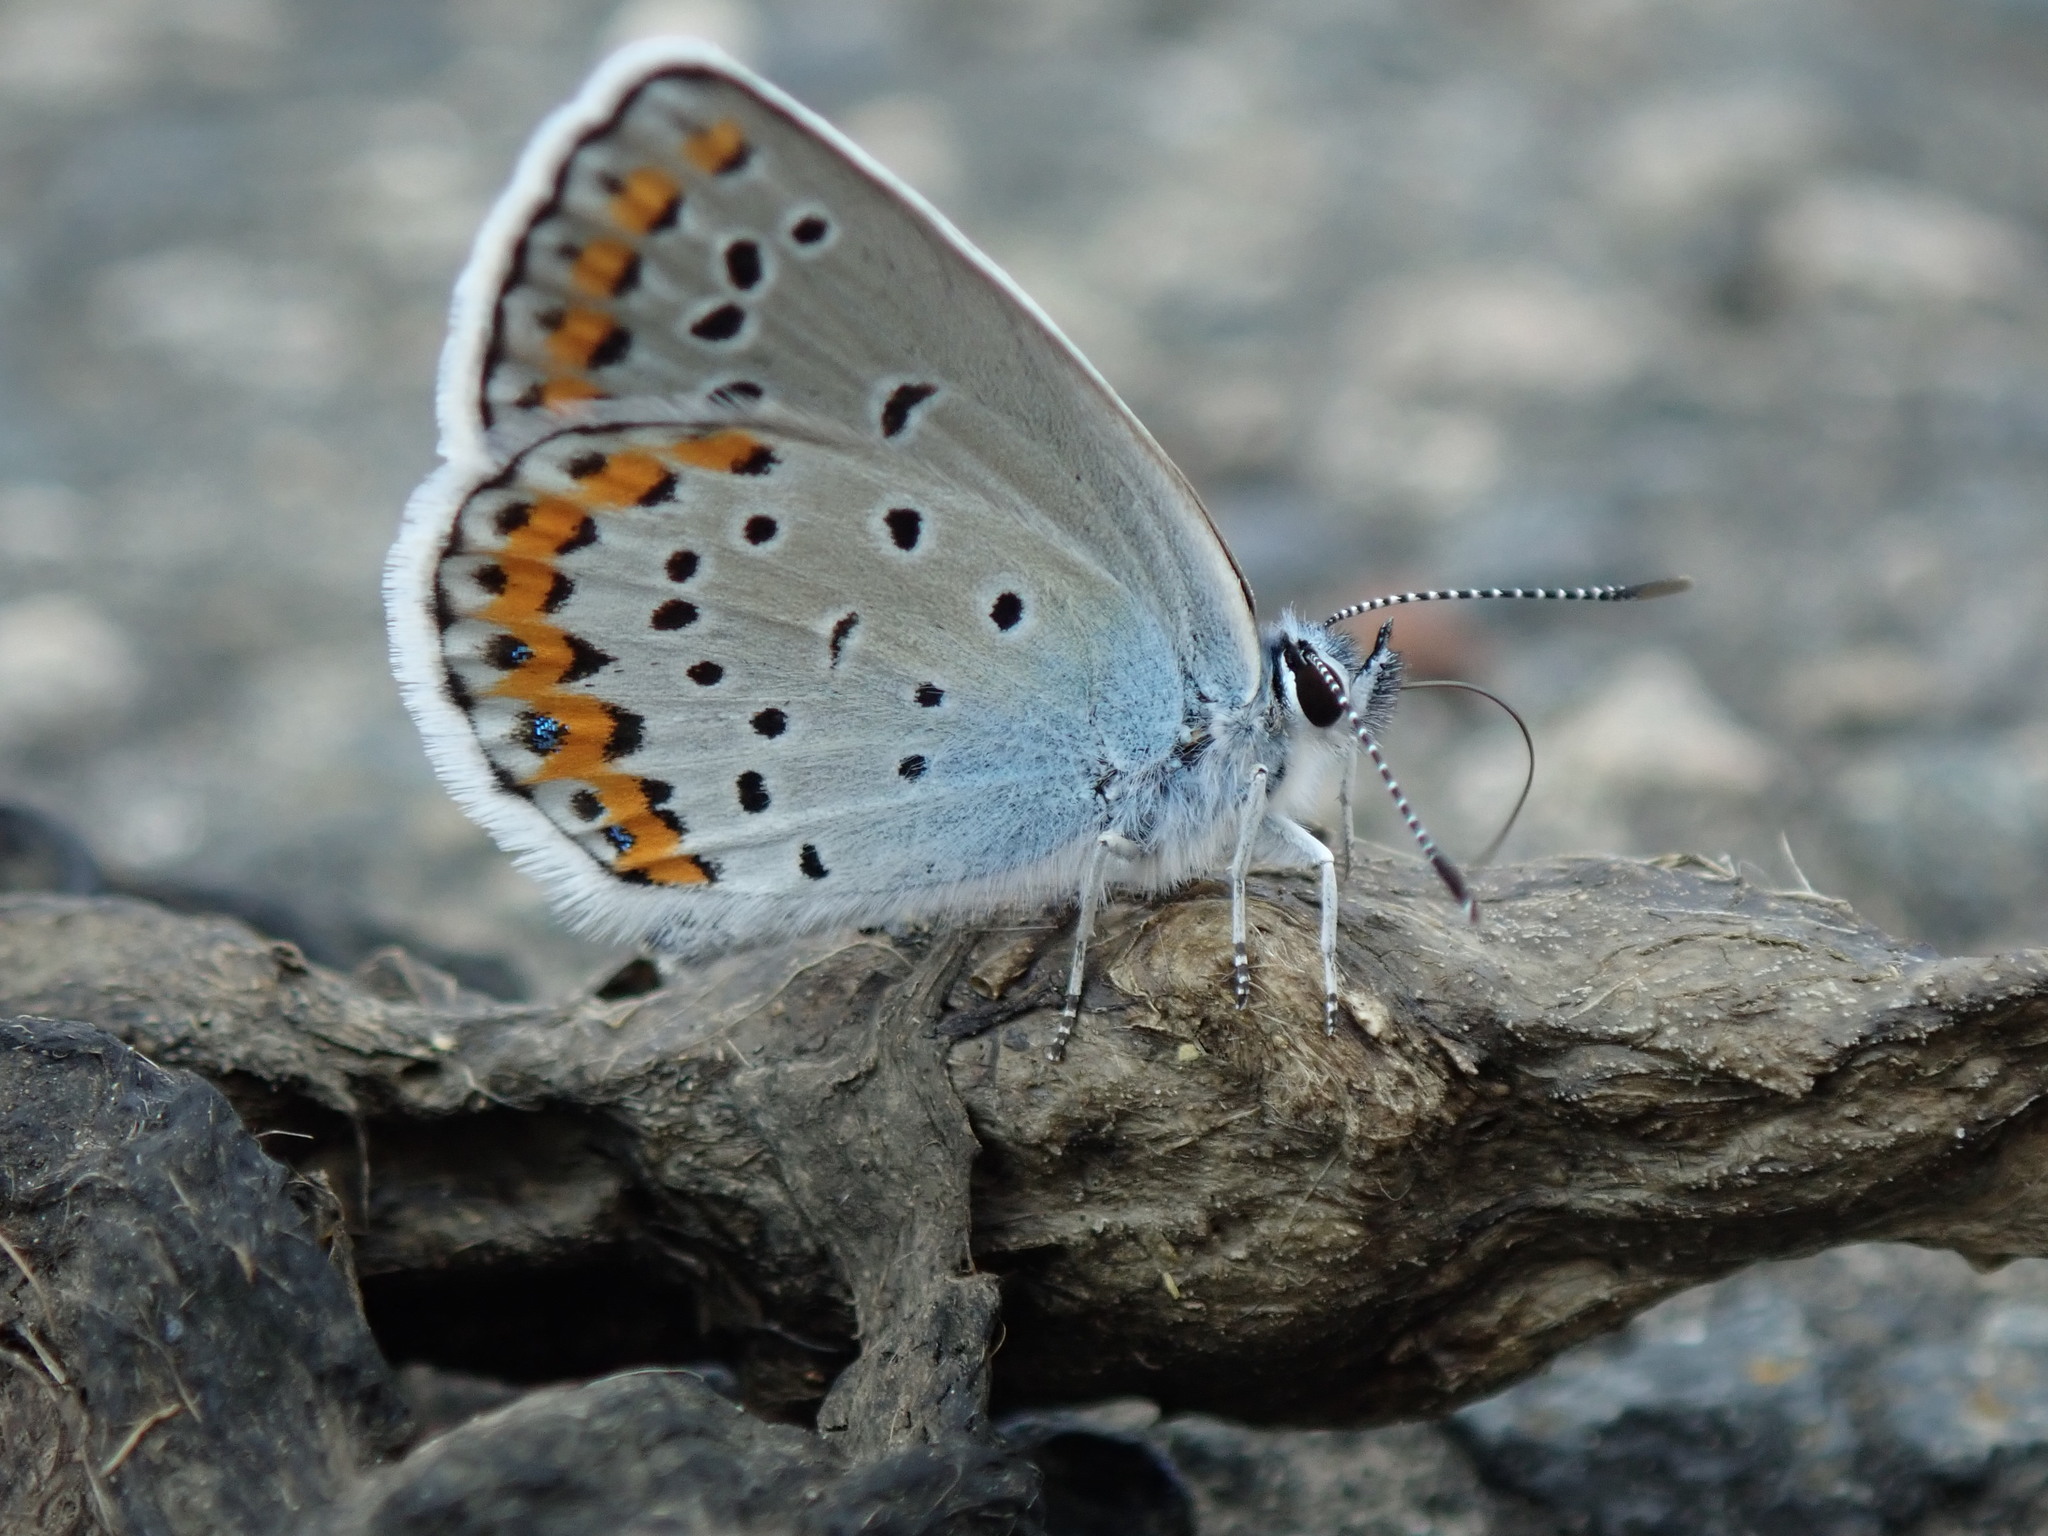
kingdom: Animalia
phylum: Arthropoda
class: Insecta
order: Lepidoptera
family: Lycaenidae
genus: Plebejus
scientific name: Plebejus argyrognomon
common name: Reverdin's blue
